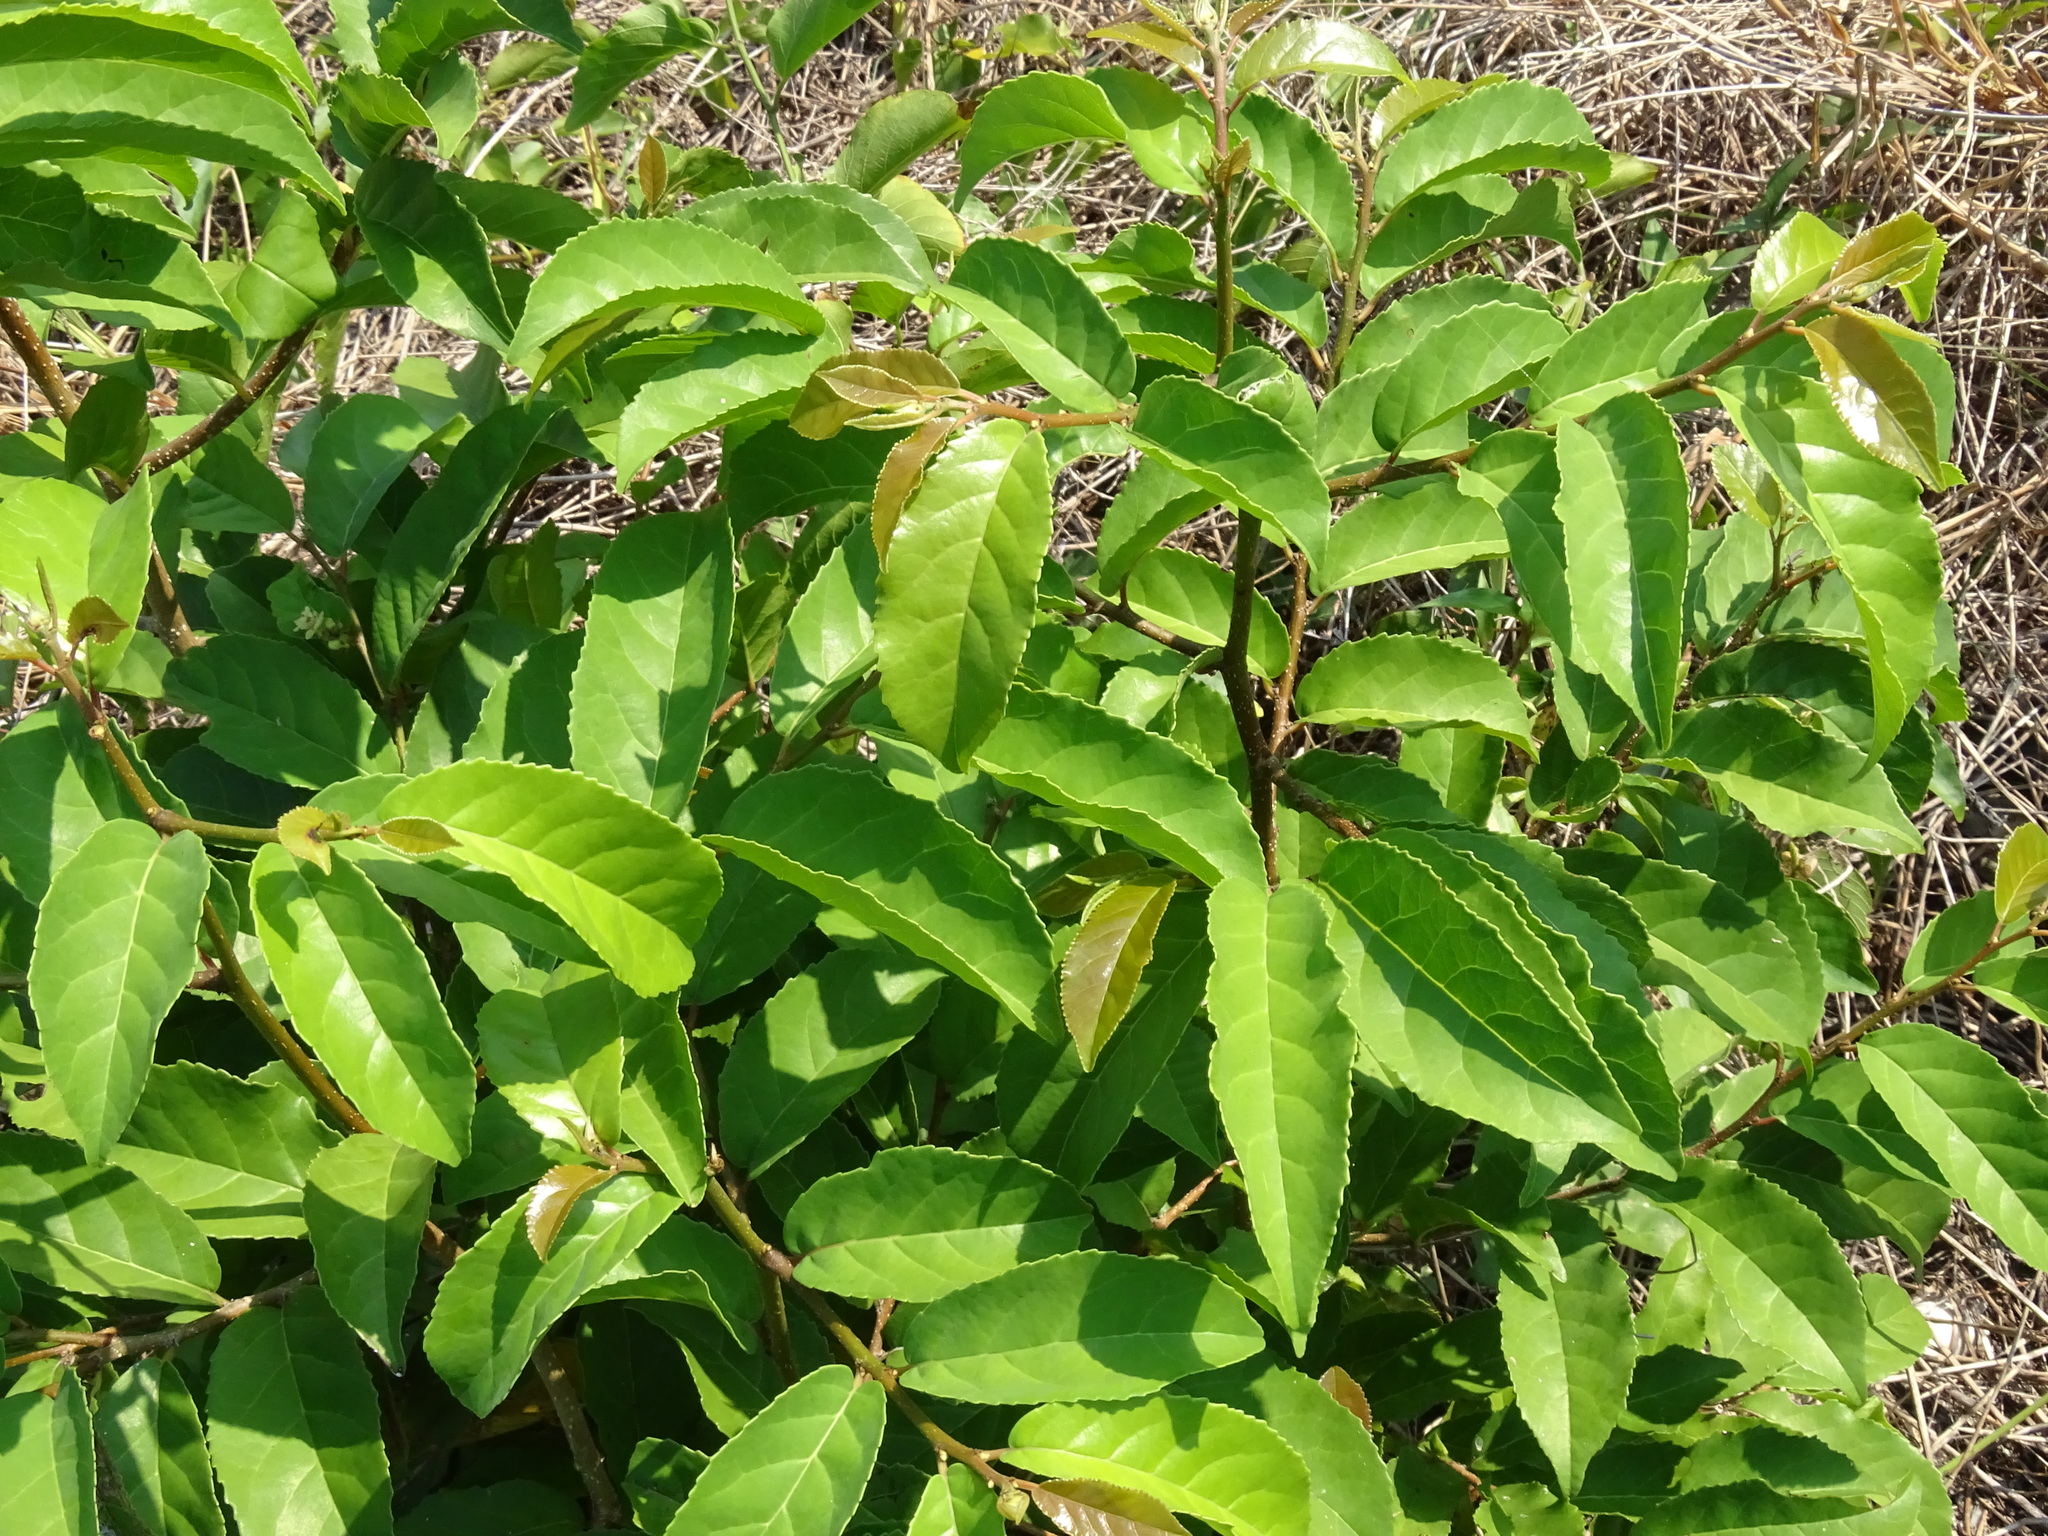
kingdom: Plantae
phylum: Tracheophyta
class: Magnoliopsida
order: Malpighiales
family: Salicaceae
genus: Casearia
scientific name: Casearia corymbosa
